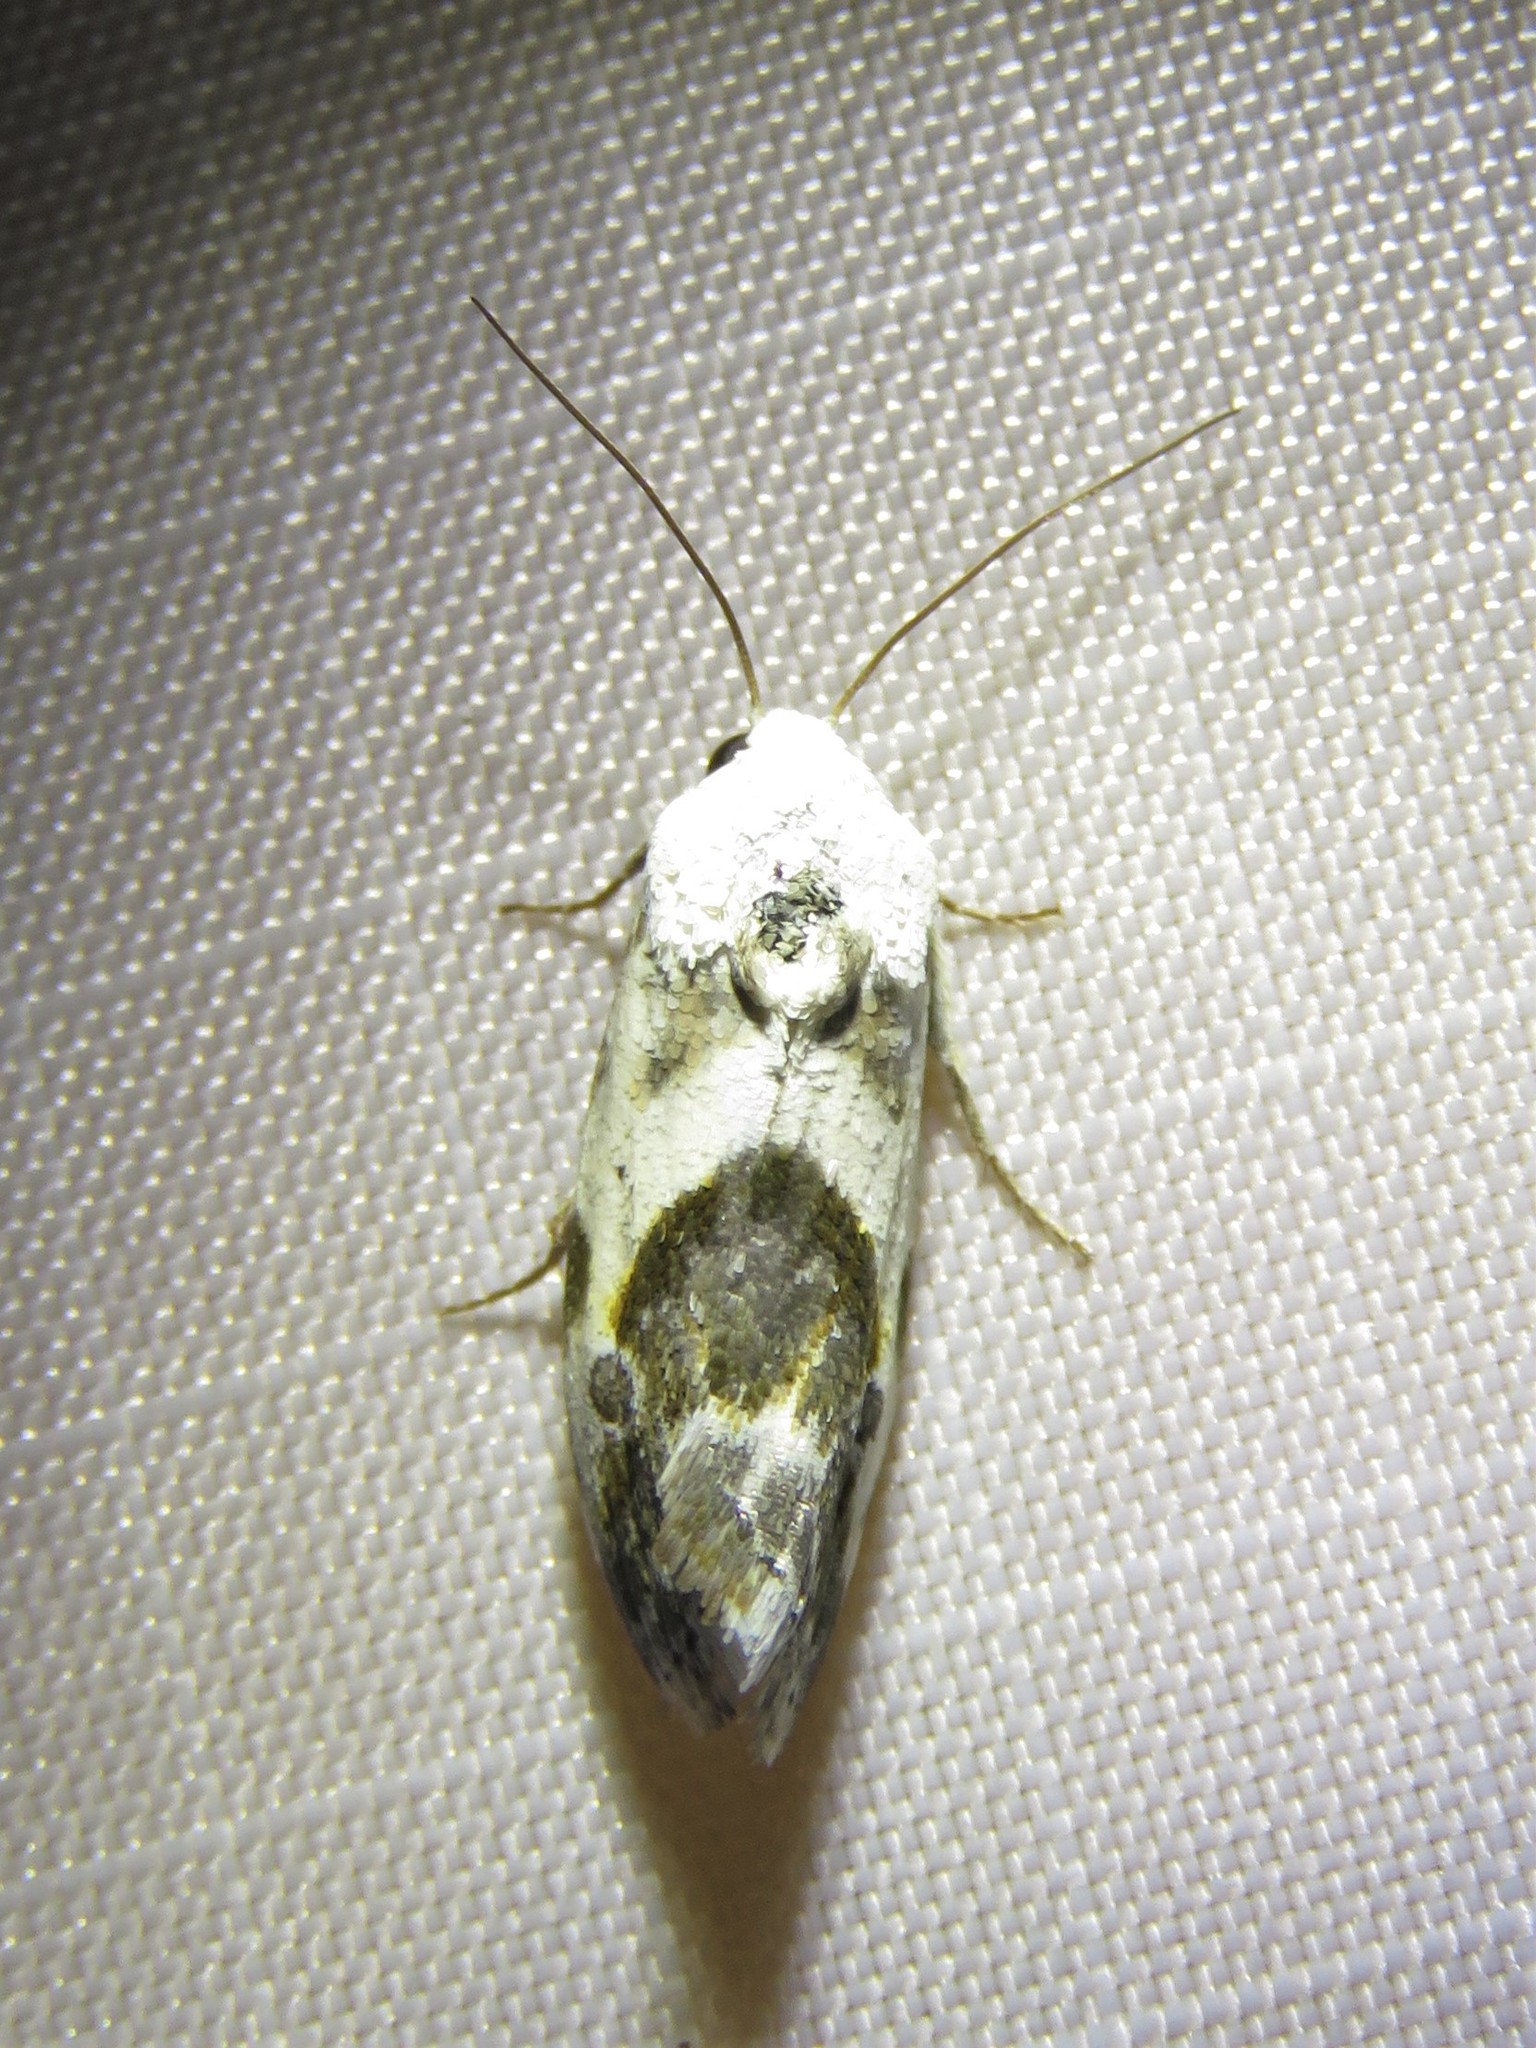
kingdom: Animalia
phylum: Arthropoda
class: Insecta
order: Lepidoptera
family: Noctuidae
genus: Acontia
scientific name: Acontia candefacta
